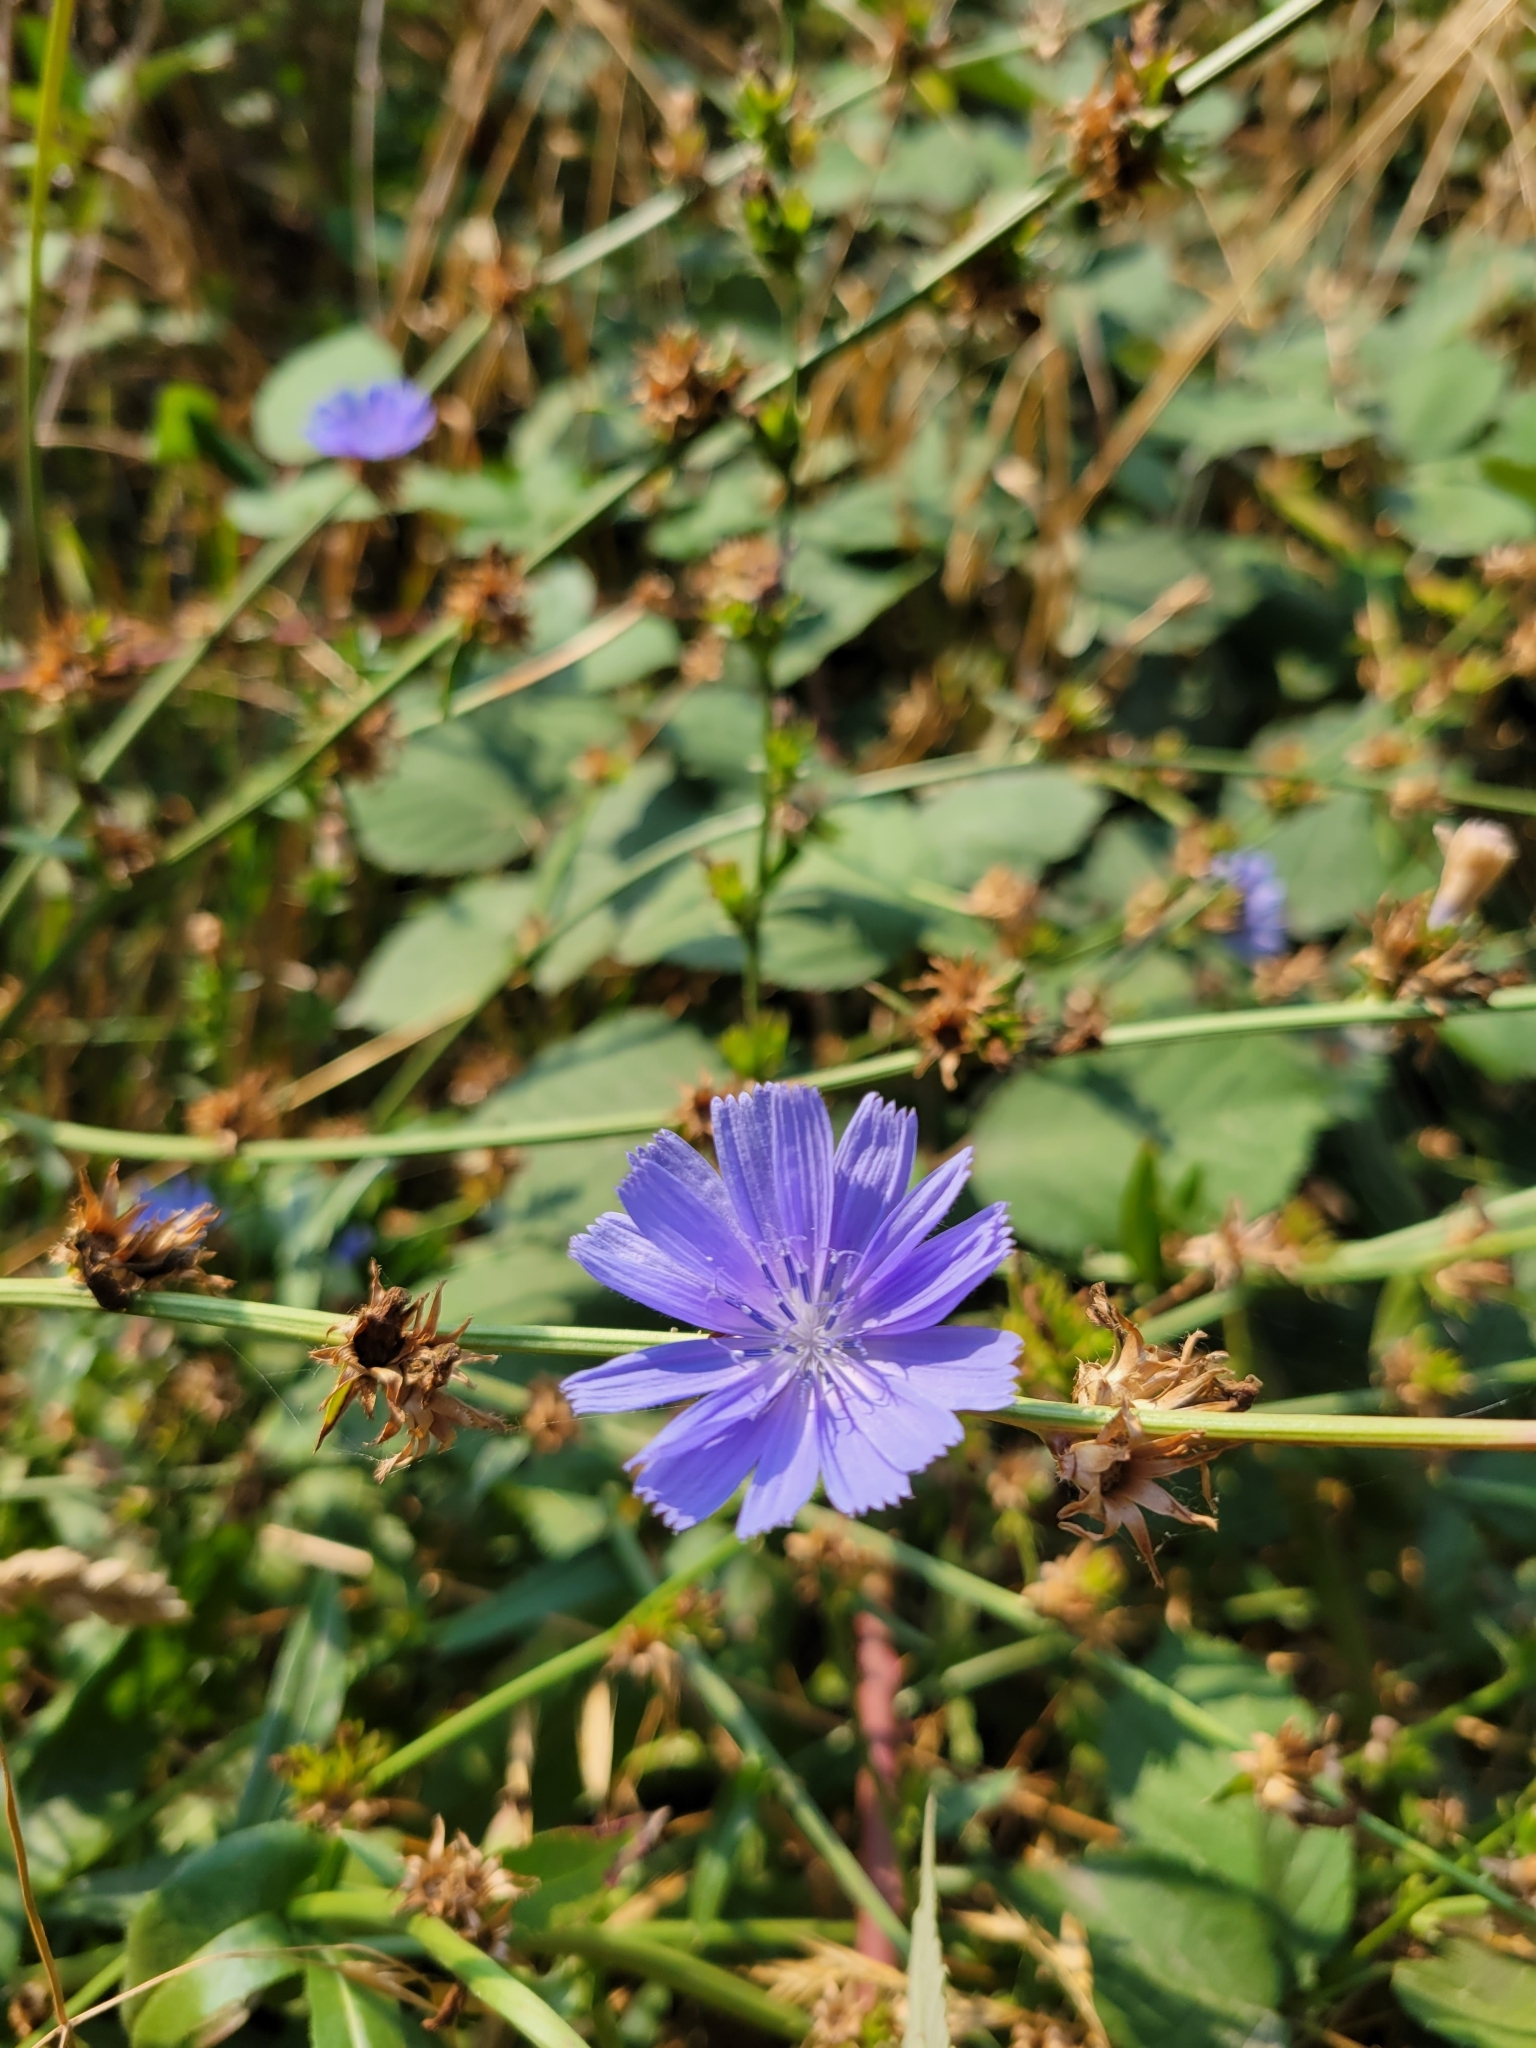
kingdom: Plantae
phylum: Tracheophyta
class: Magnoliopsida
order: Asterales
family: Asteraceae
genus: Cichorium
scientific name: Cichorium intybus
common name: Chicory
